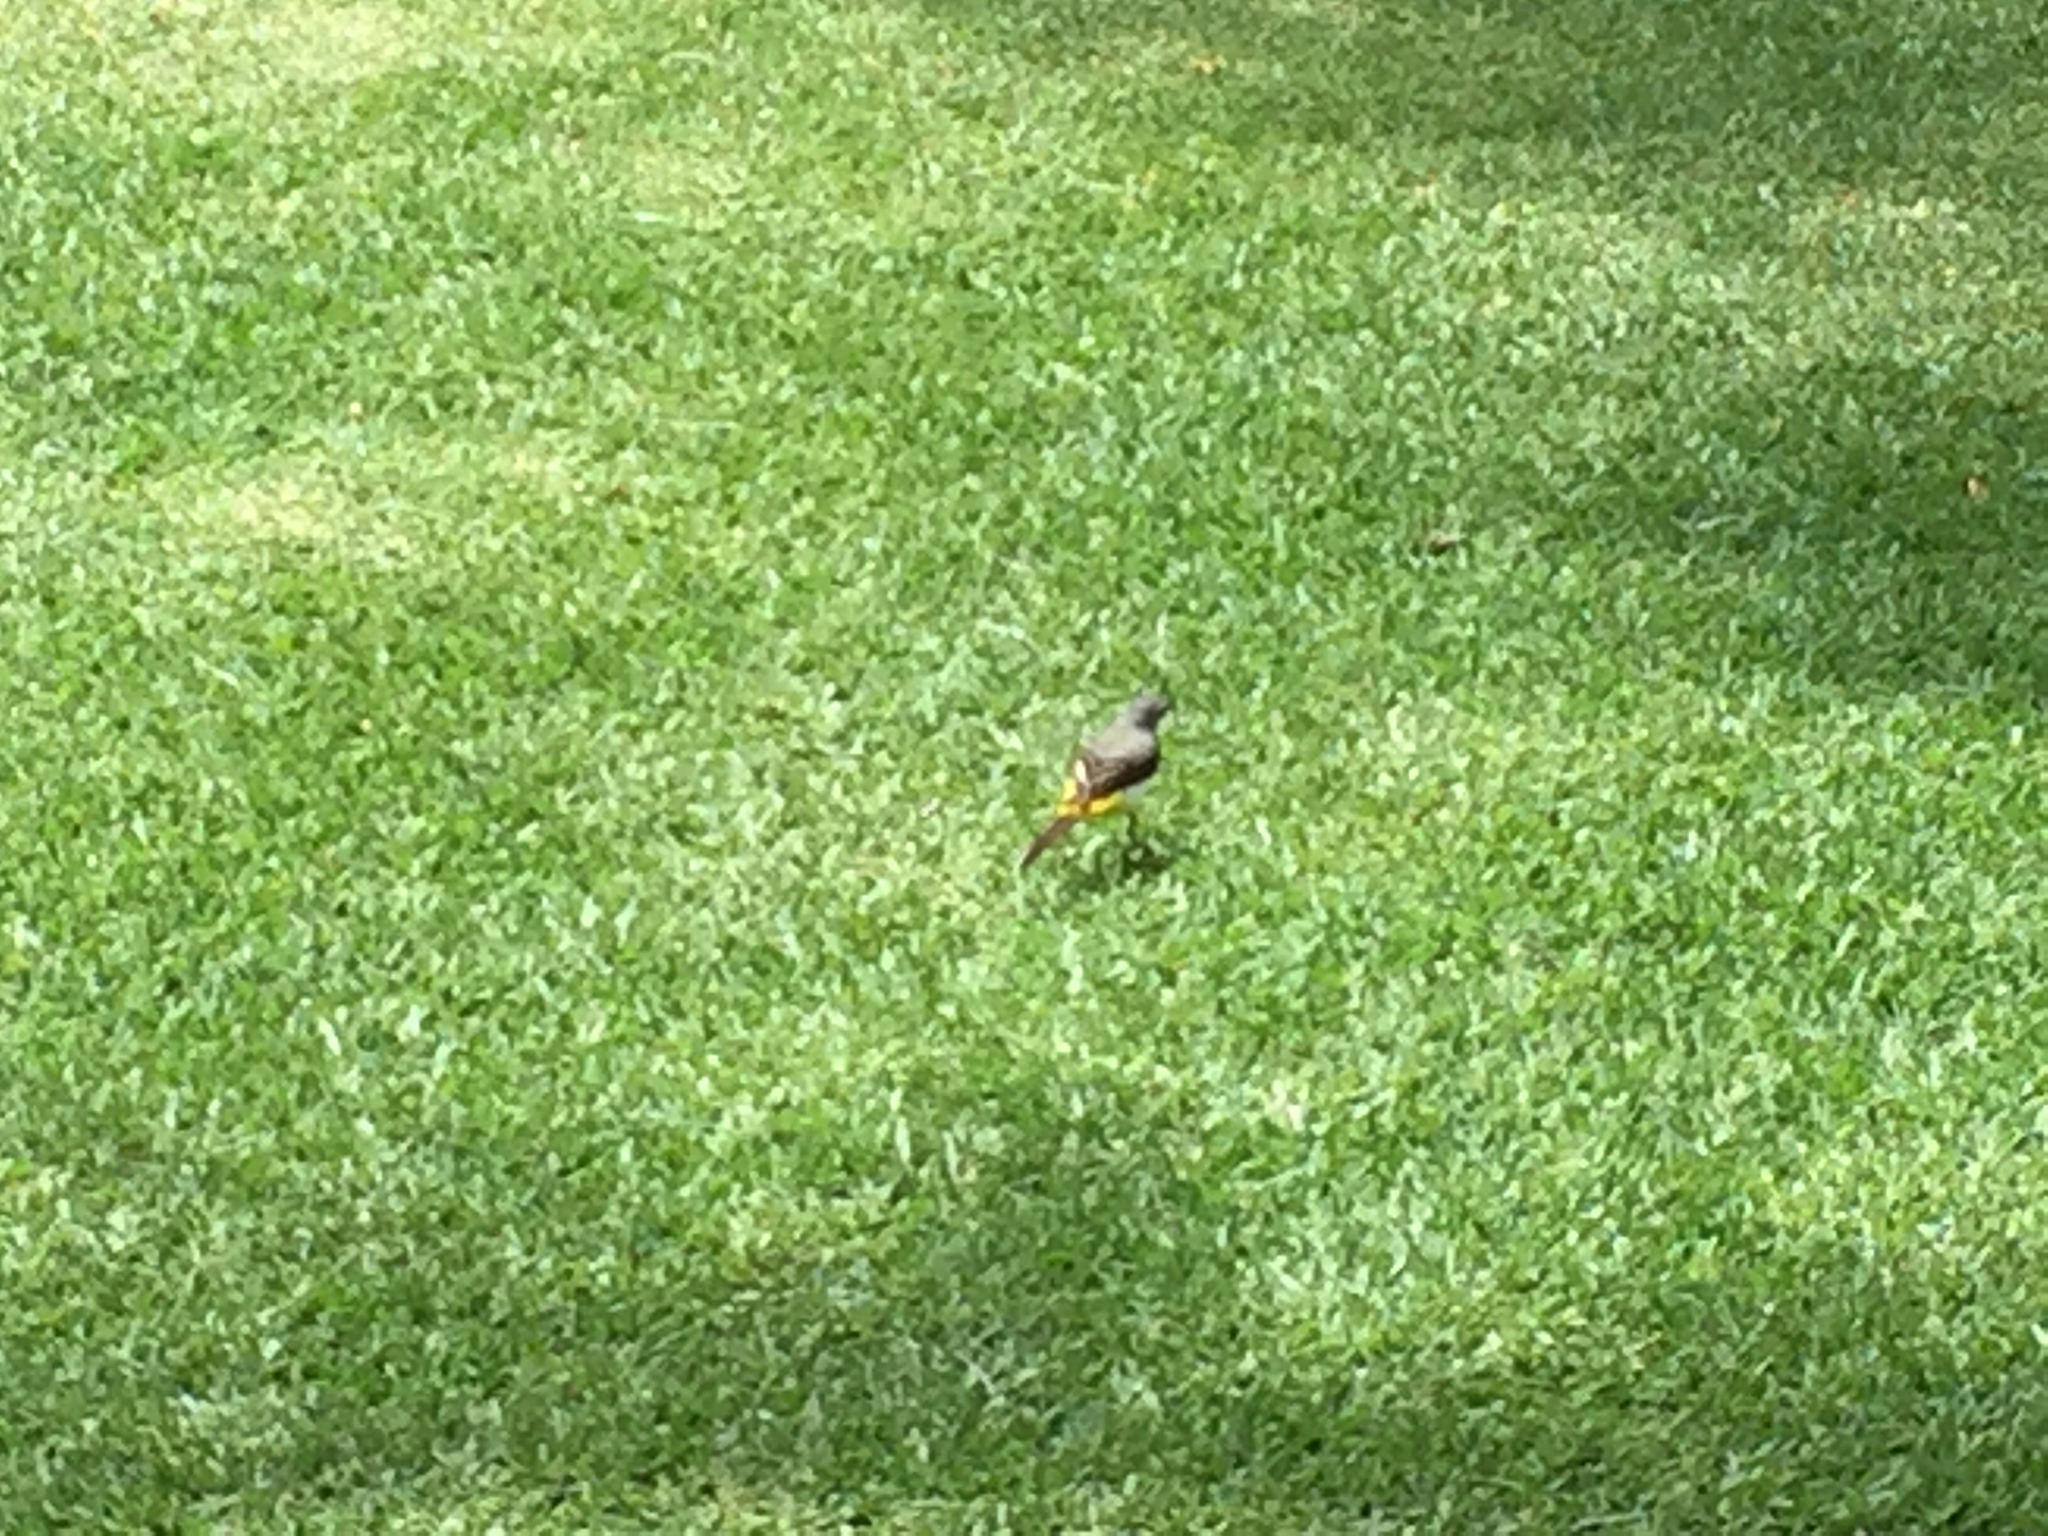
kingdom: Animalia
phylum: Chordata
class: Aves
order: Passeriformes
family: Motacillidae
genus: Motacilla
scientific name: Motacilla cinerea
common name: Grey wagtail
